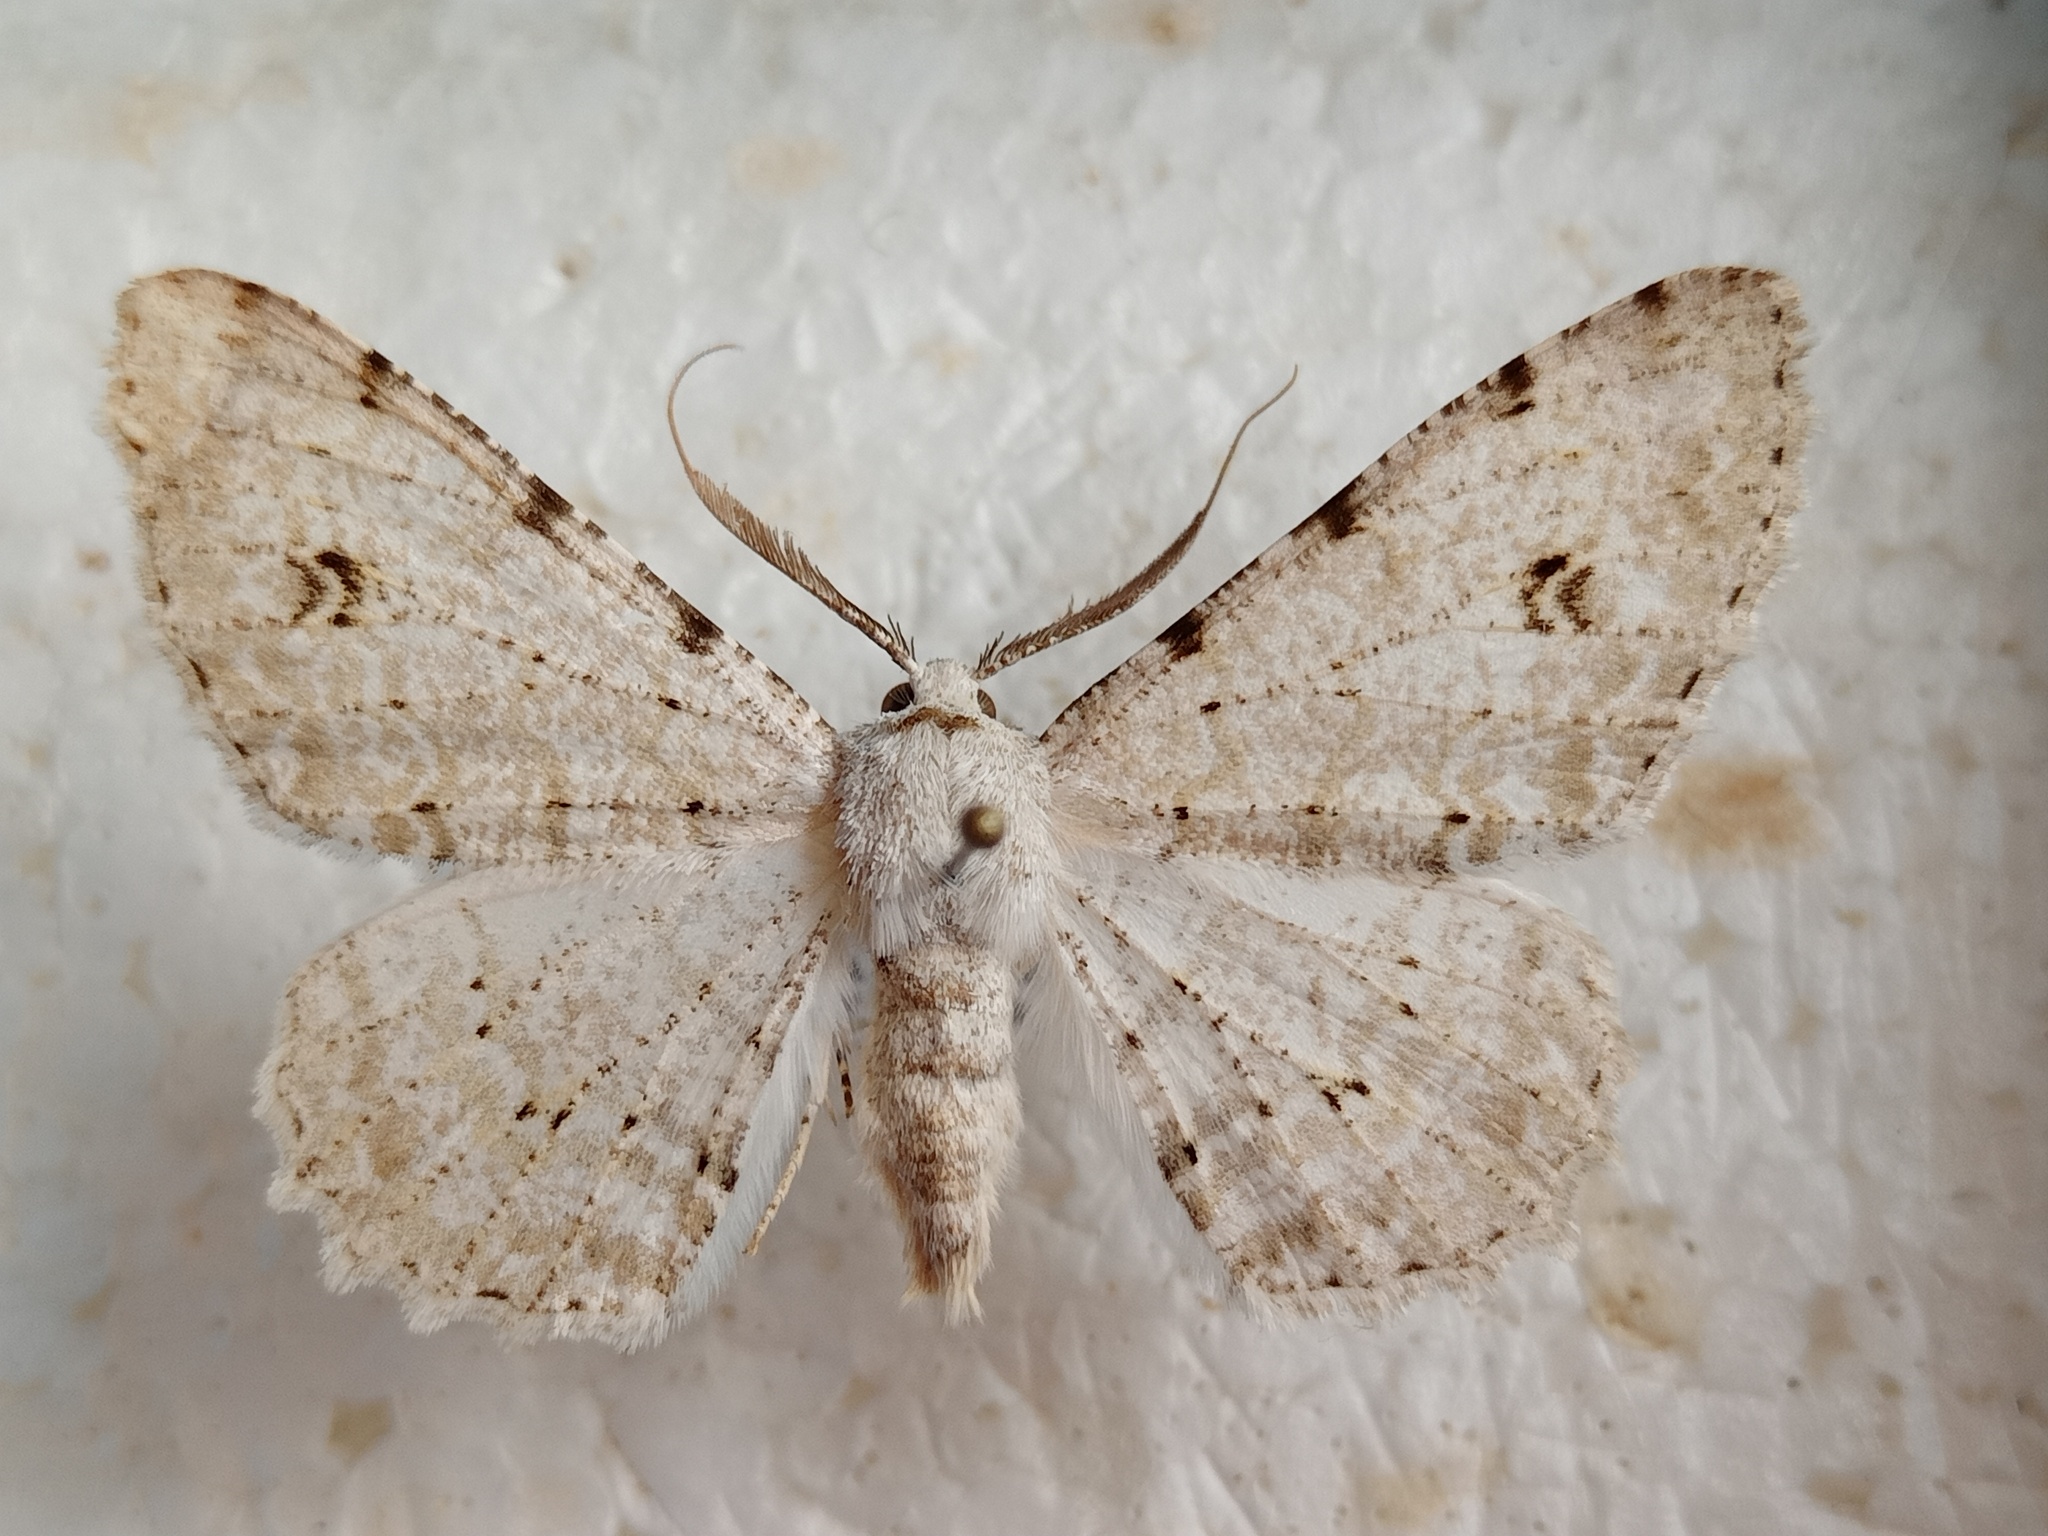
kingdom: Animalia
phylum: Arthropoda
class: Insecta
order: Lepidoptera
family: Geometridae
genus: Lassaba
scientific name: Lassaba parvalbidaria
